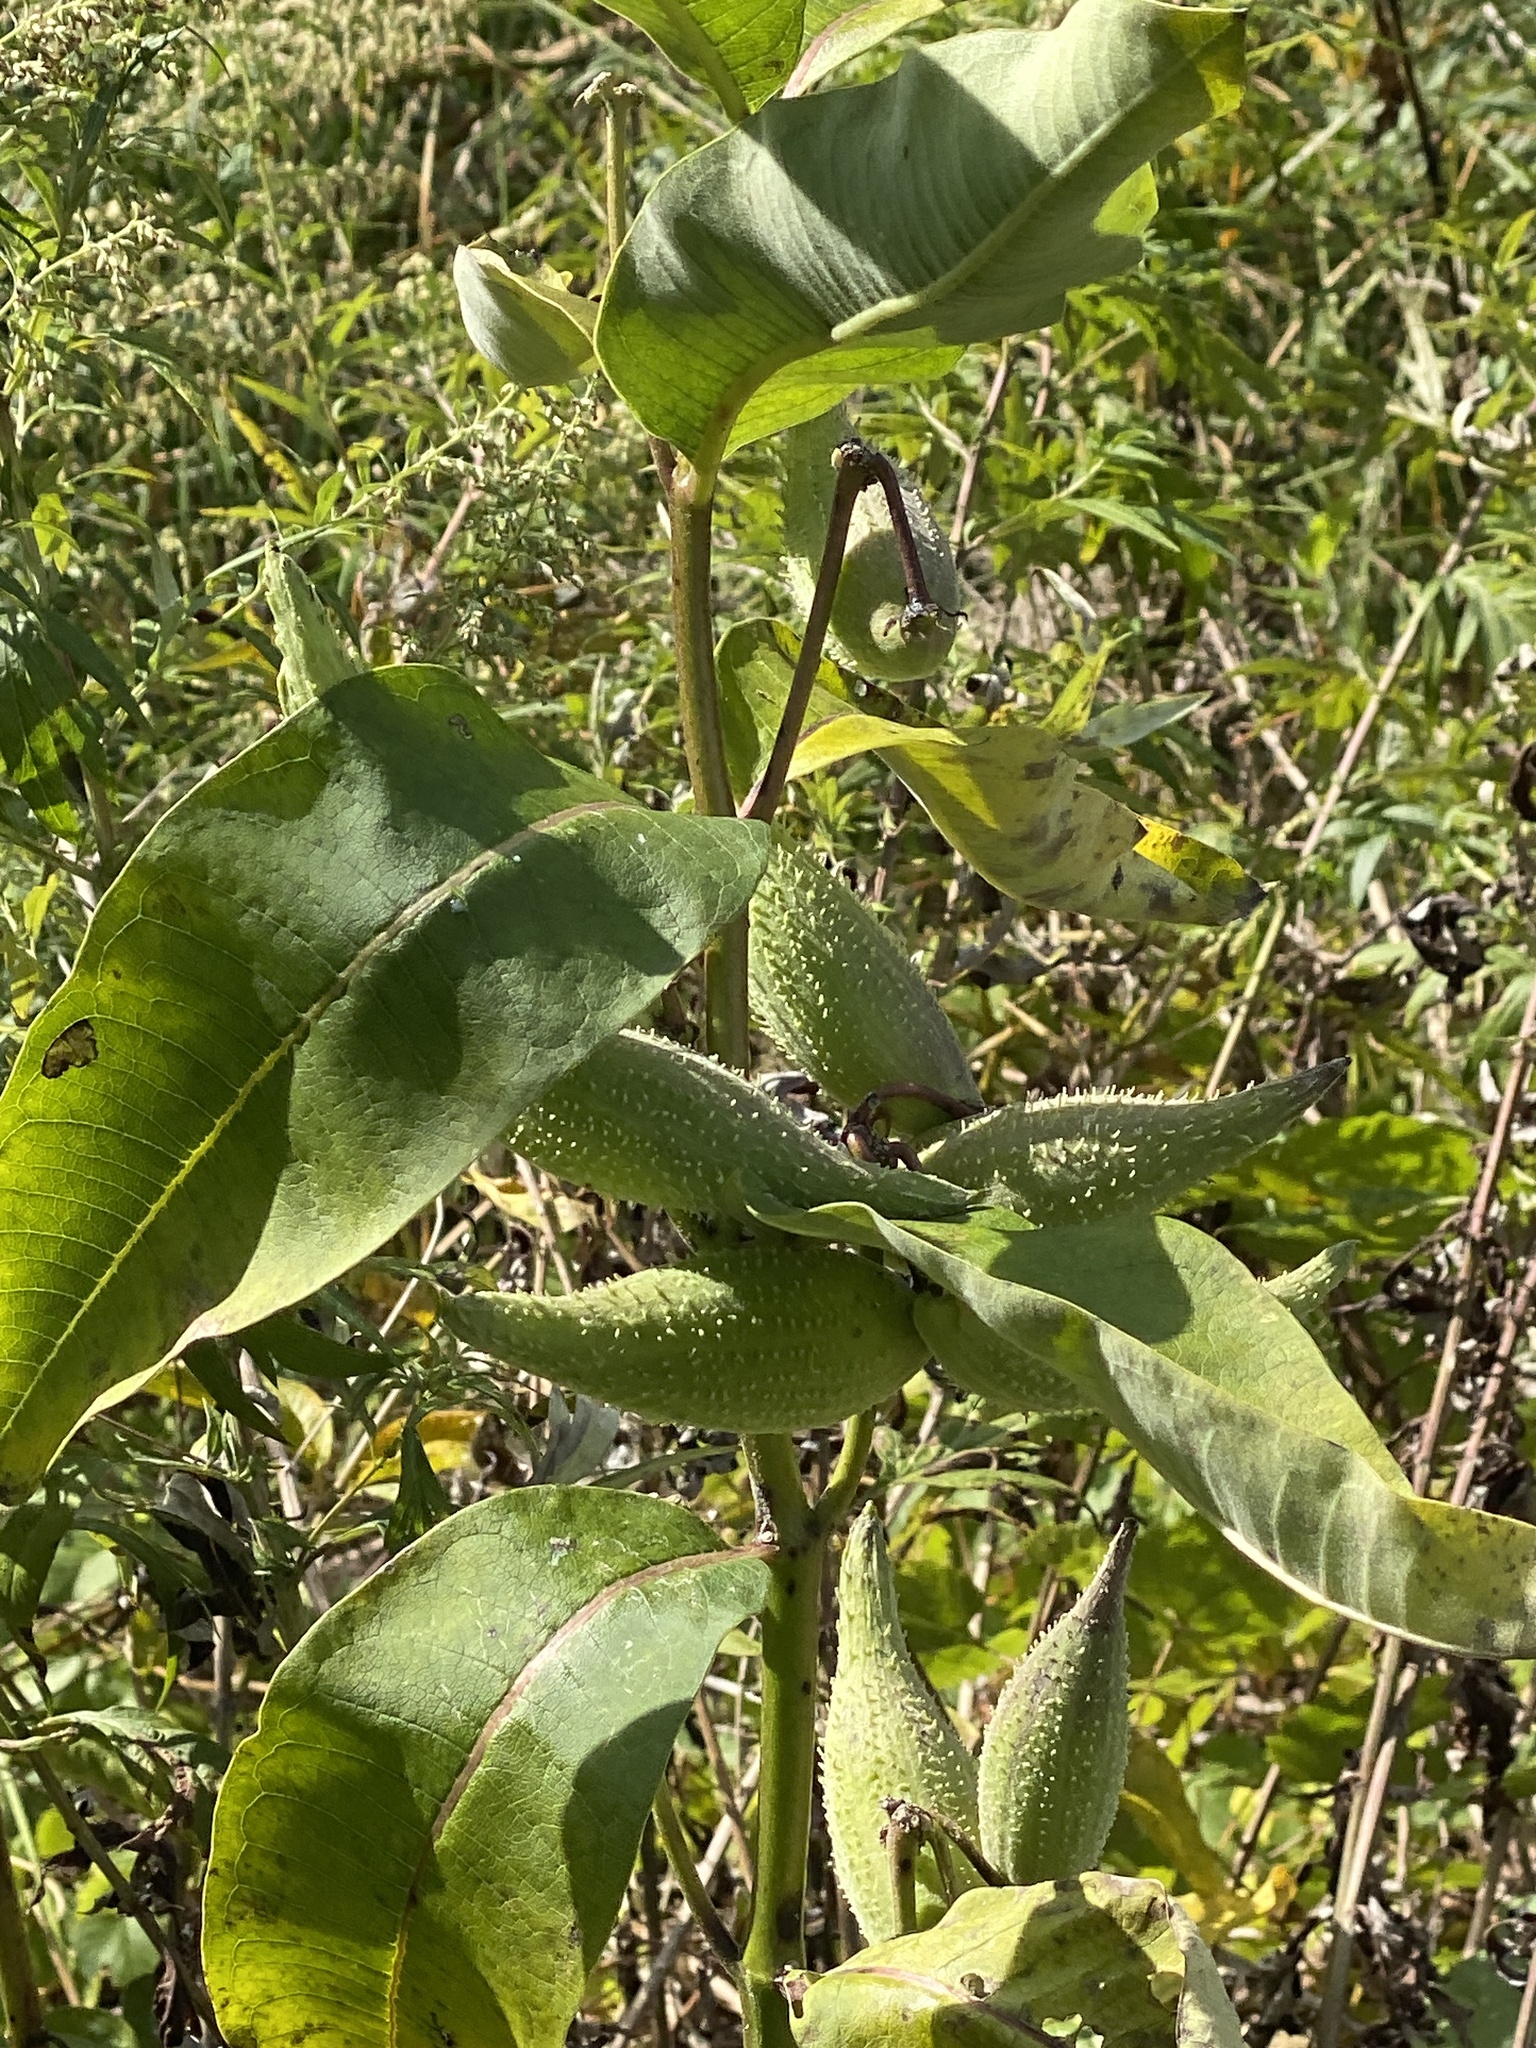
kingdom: Plantae
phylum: Tracheophyta
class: Magnoliopsida
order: Gentianales
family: Apocynaceae
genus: Asclepias
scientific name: Asclepias syriaca
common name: Common milkweed
